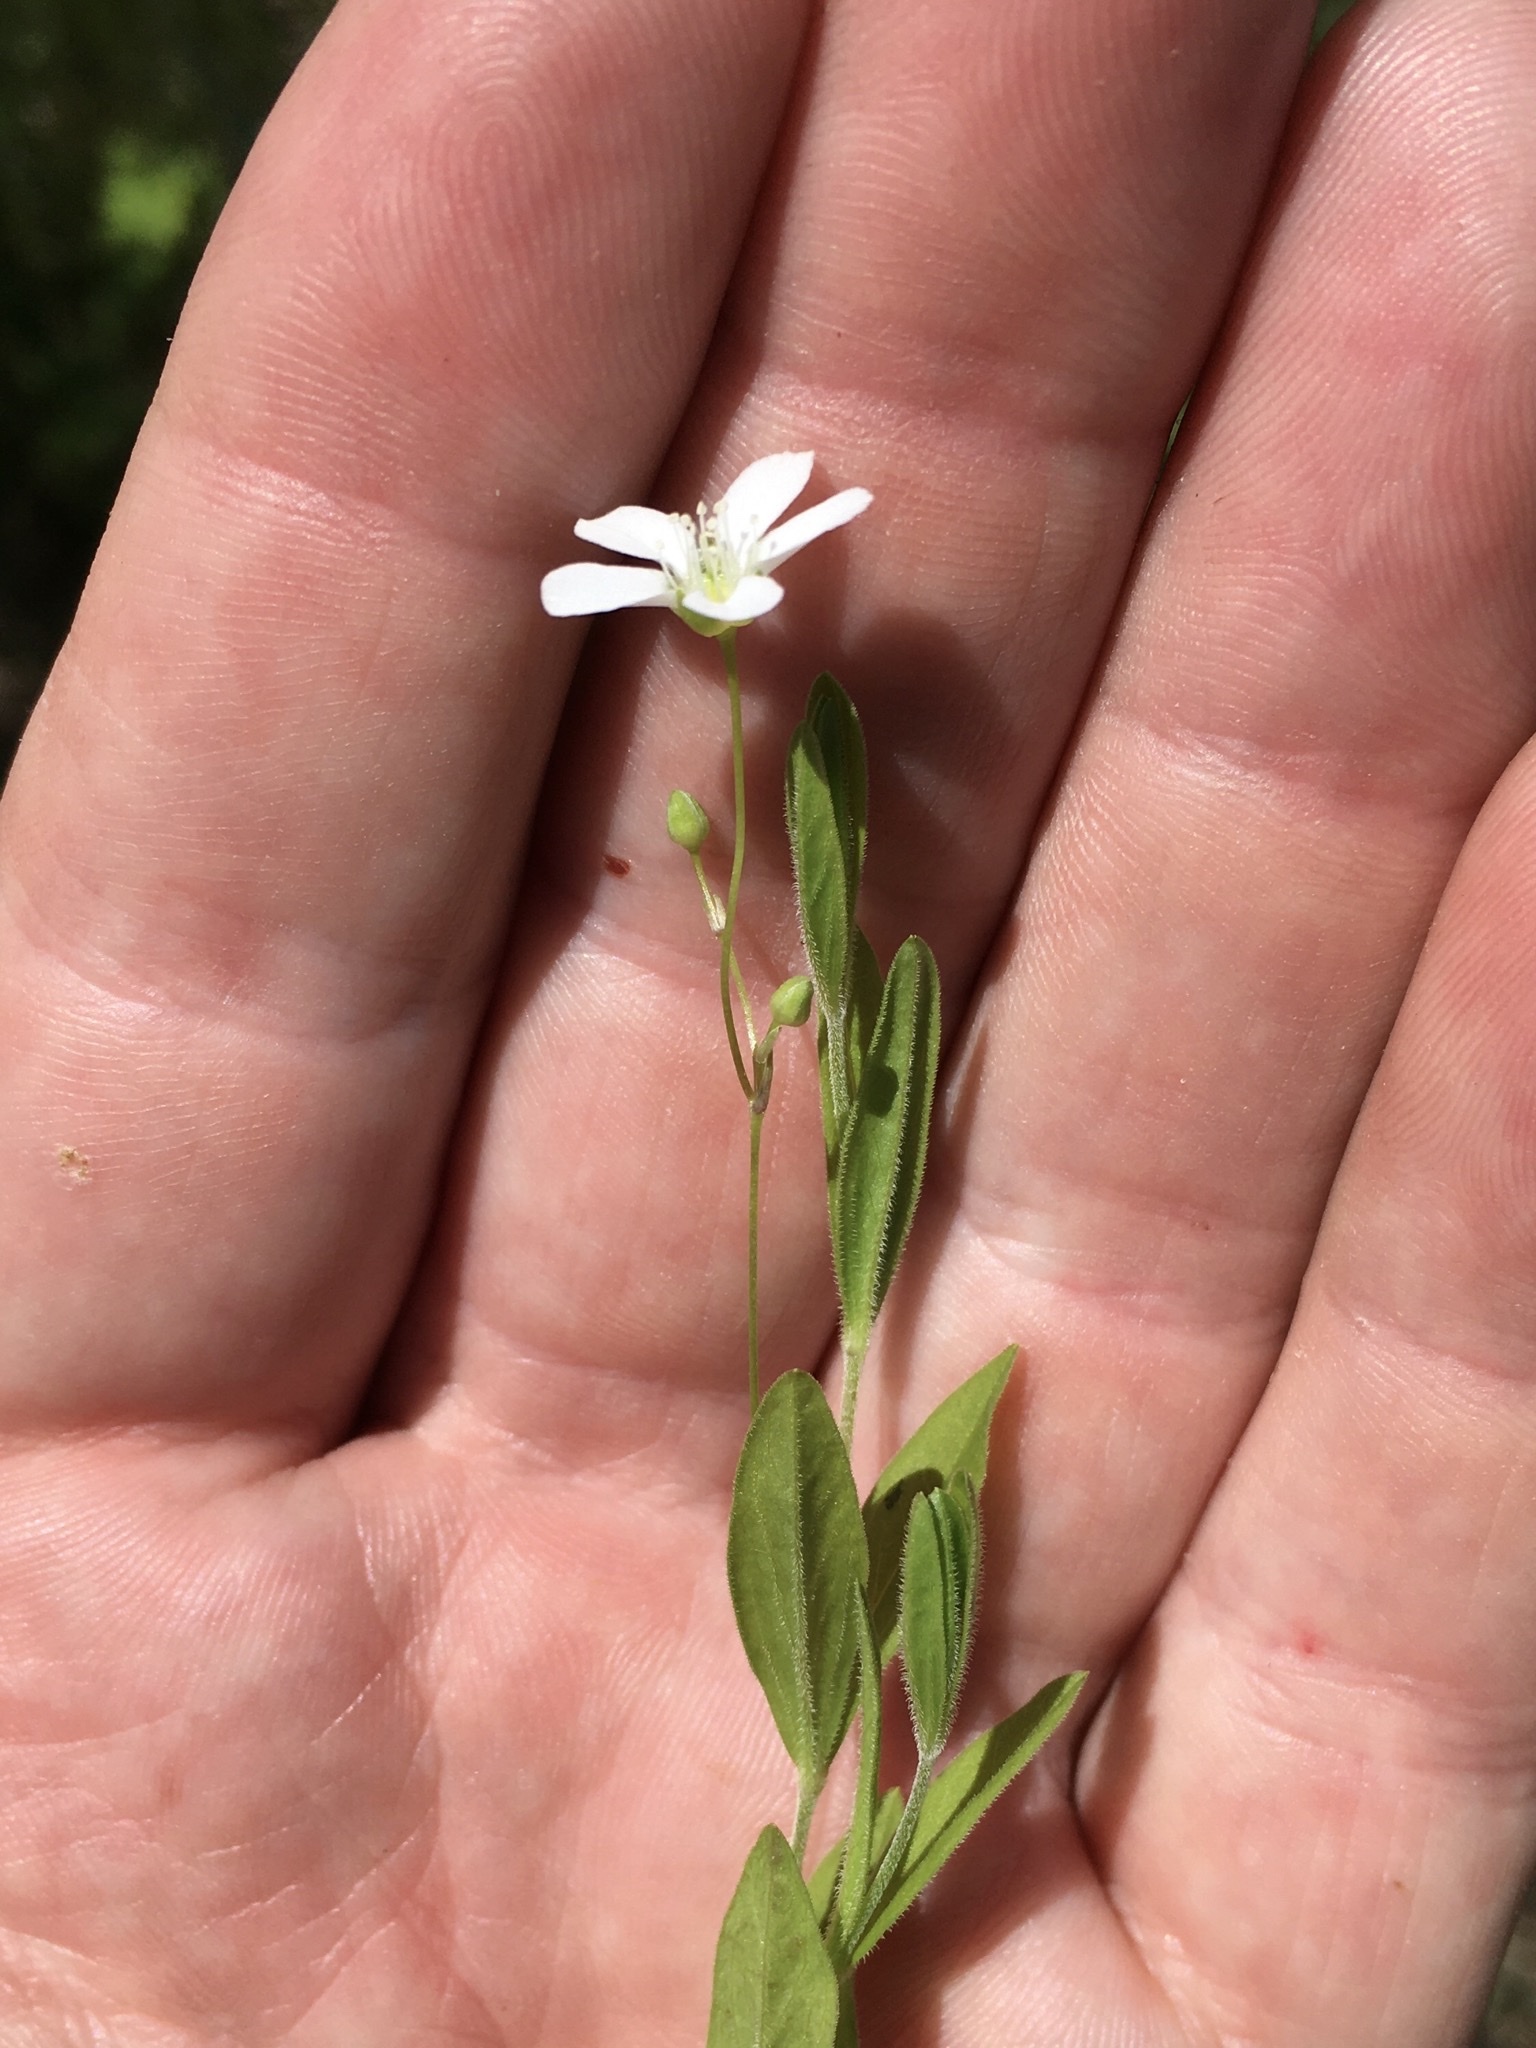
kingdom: Plantae
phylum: Tracheophyta
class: Magnoliopsida
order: Caryophyllales
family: Caryophyllaceae
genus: Moehringia
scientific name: Moehringia lateriflora
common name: Blunt-leaved sandwort
